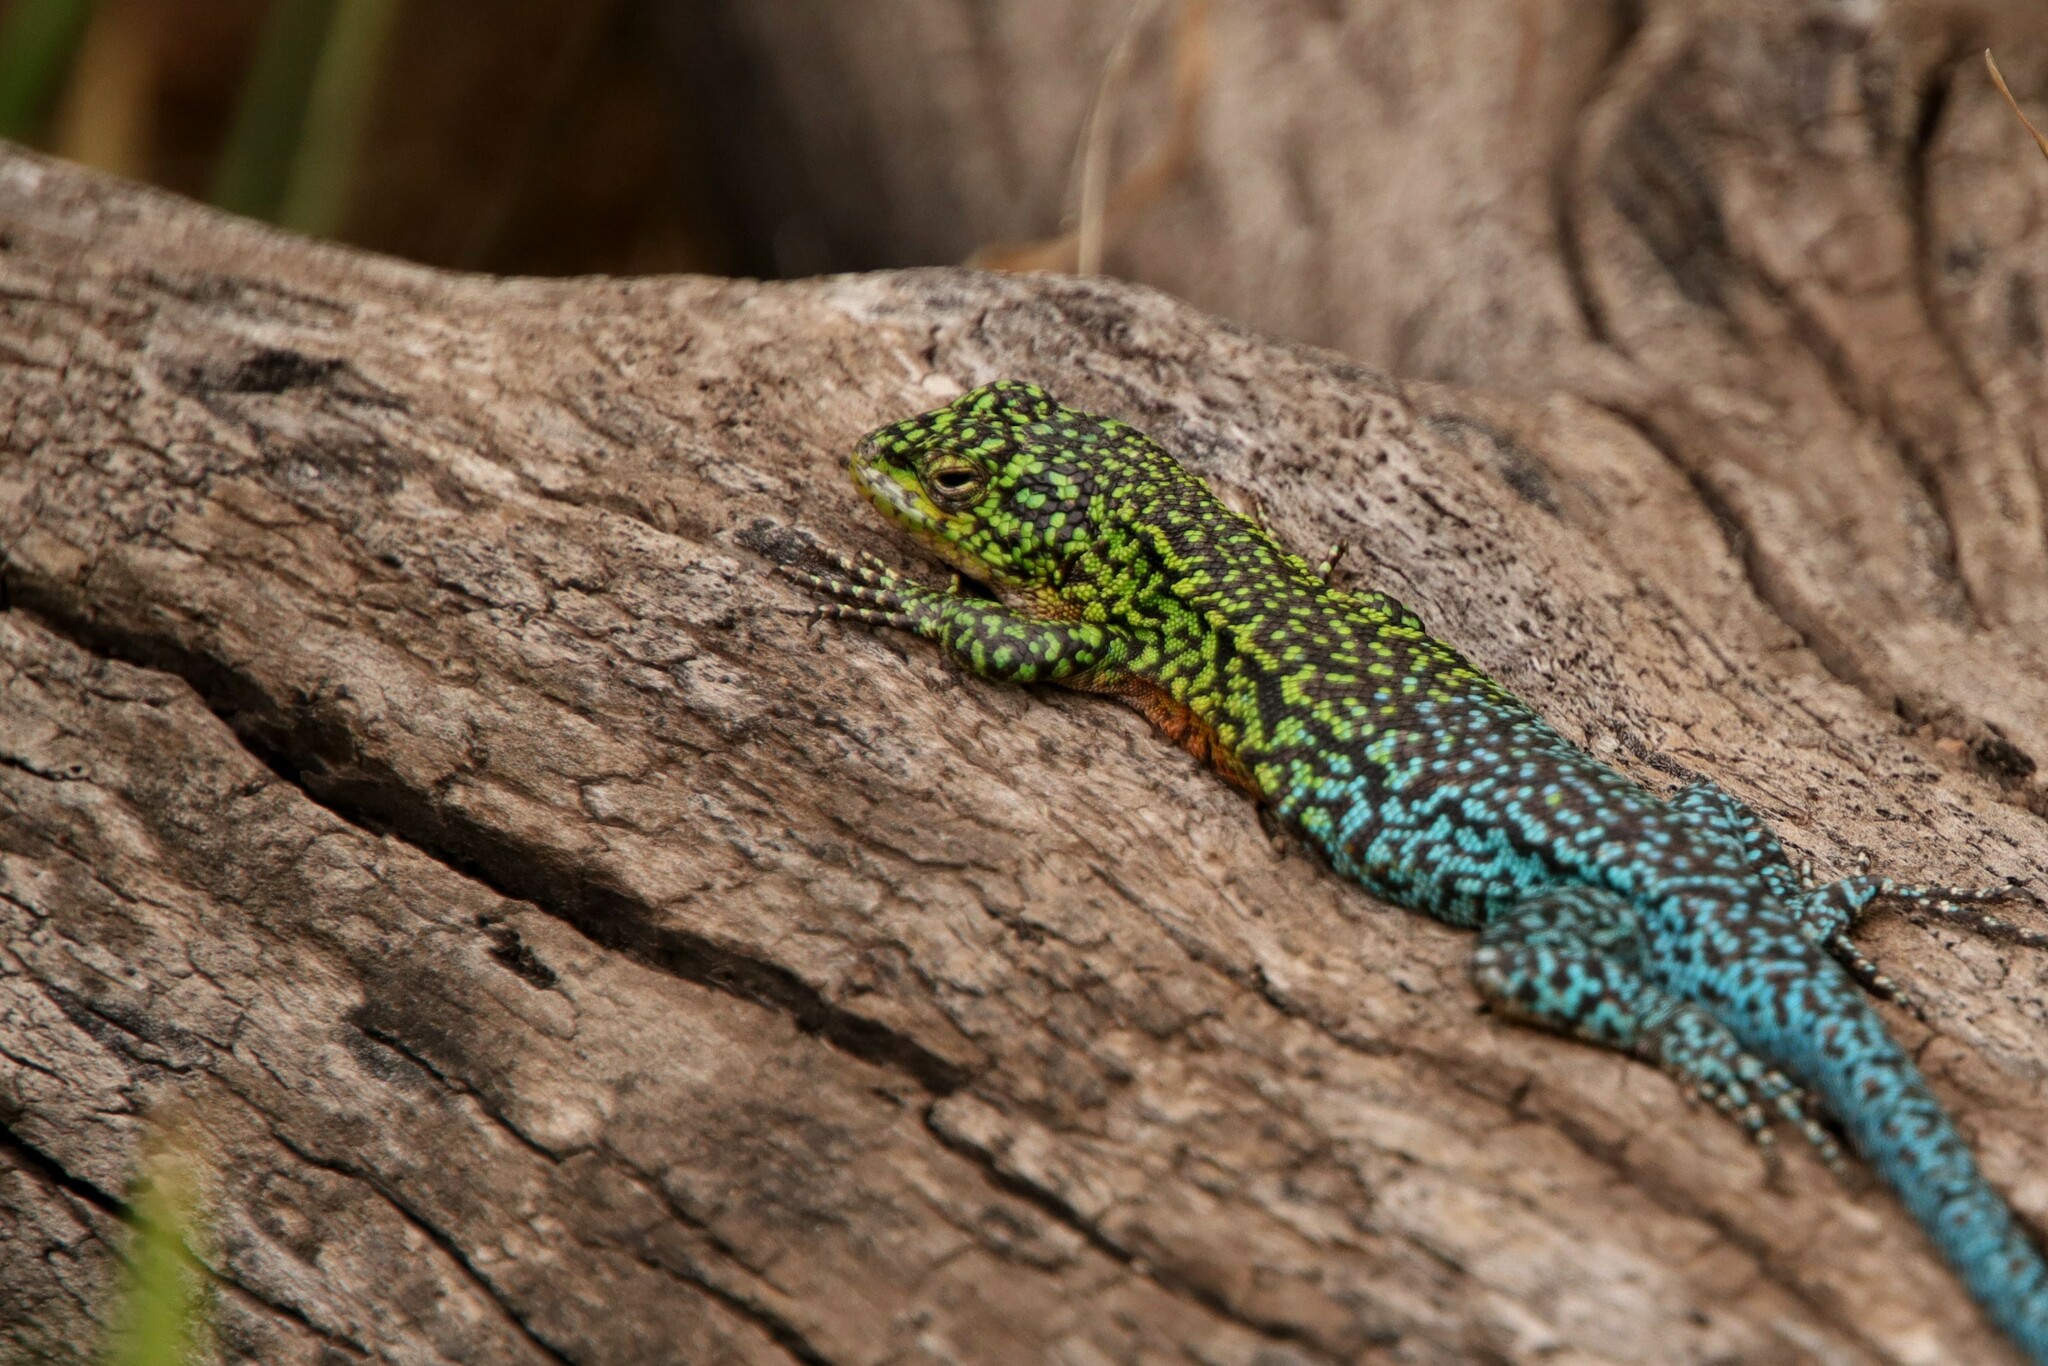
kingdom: Animalia
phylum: Chordata
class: Squamata
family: Liolaemidae
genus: Liolaemus
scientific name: Liolaemus tenuis
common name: Thin tree iguana
